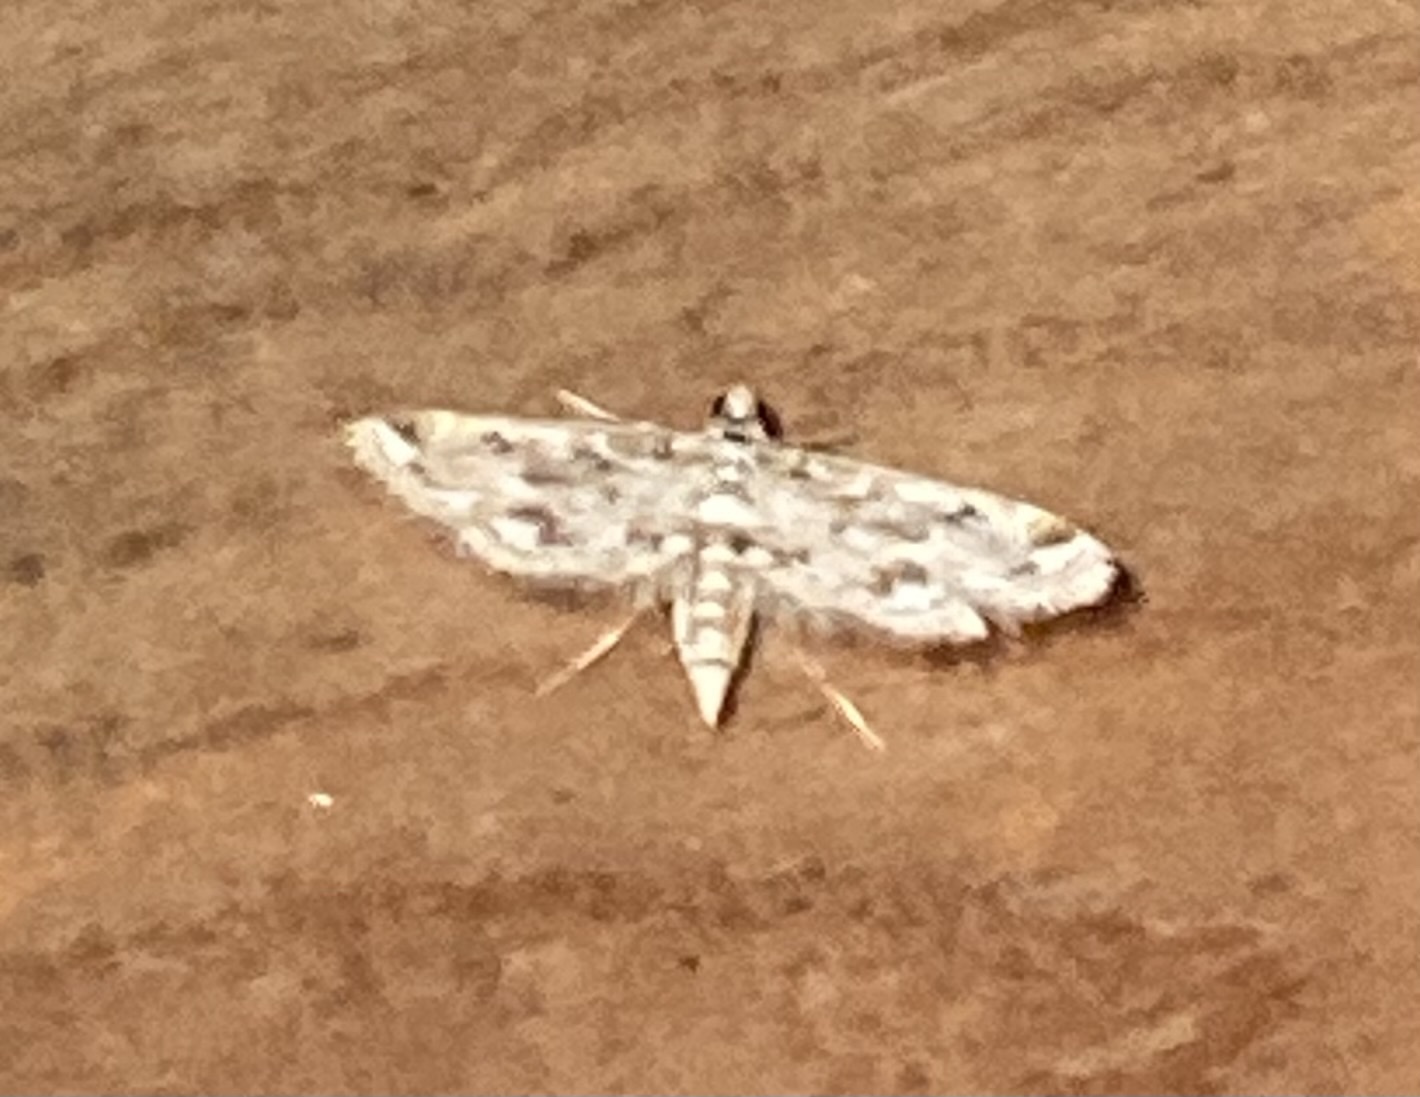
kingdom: Animalia
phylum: Arthropoda
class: Insecta
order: Lepidoptera
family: Crambidae
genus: Parapoynx
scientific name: Parapoynx diminutalis
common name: Hydrilla leafcutter
